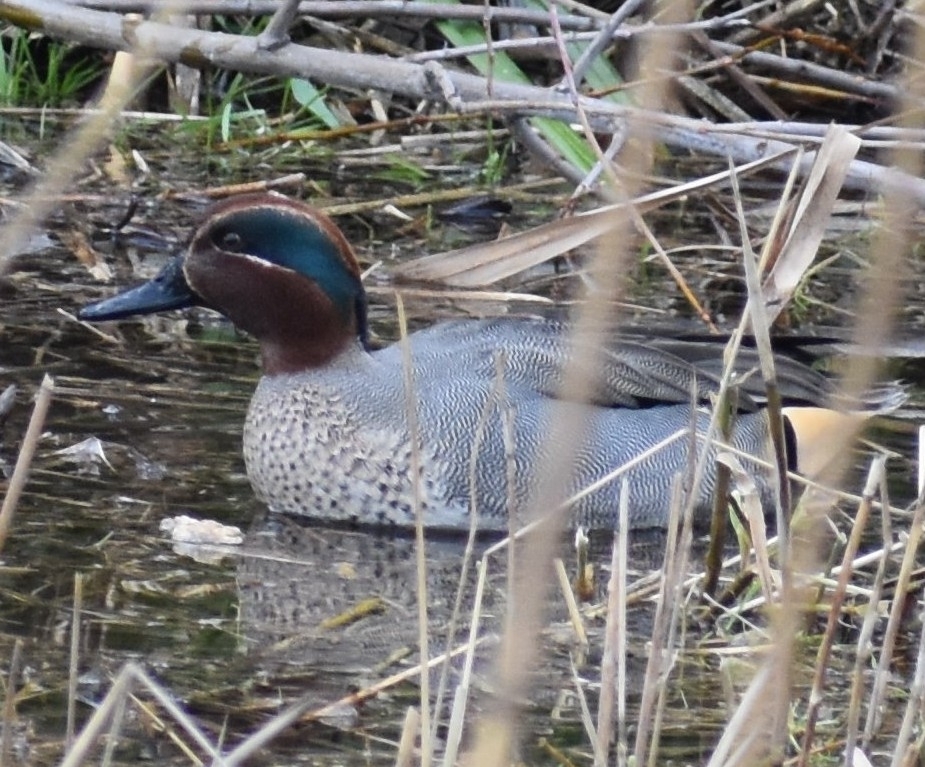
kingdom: Animalia
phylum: Chordata
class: Aves
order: Anseriformes
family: Anatidae
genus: Anas
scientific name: Anas crecca
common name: Eurasian teal
